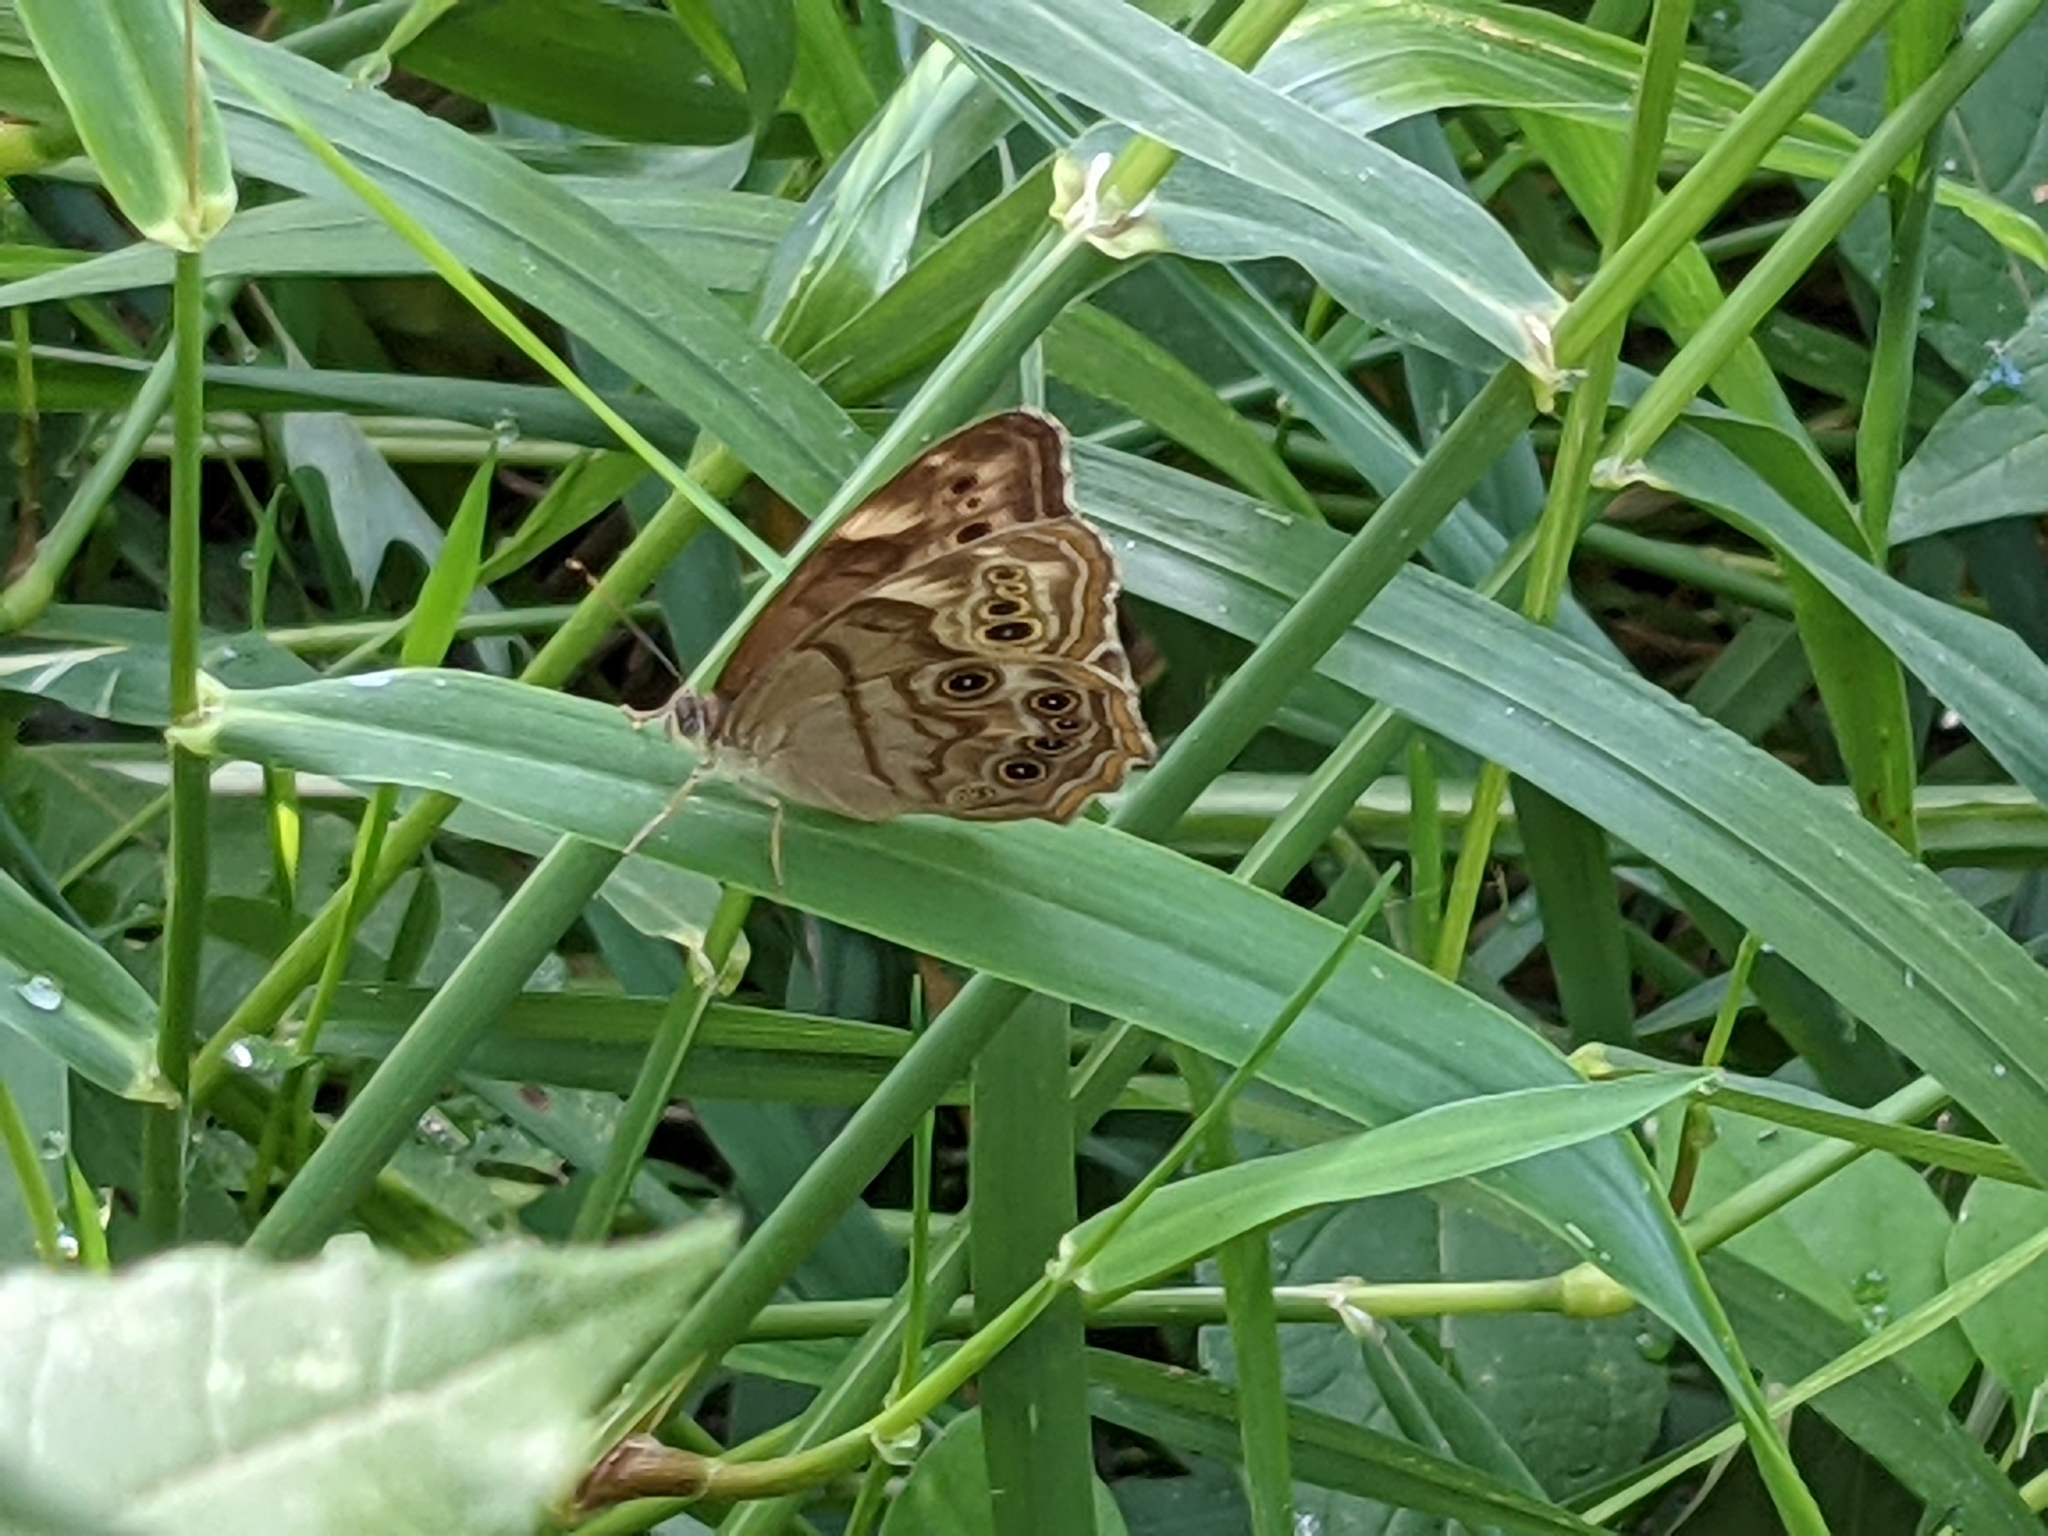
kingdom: Animalia
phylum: Arthropoda
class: Insecta
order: Lepidoptera
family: Nymphalidae
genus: Lethe
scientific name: Lethe anthedon
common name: Northern pearly-eye
